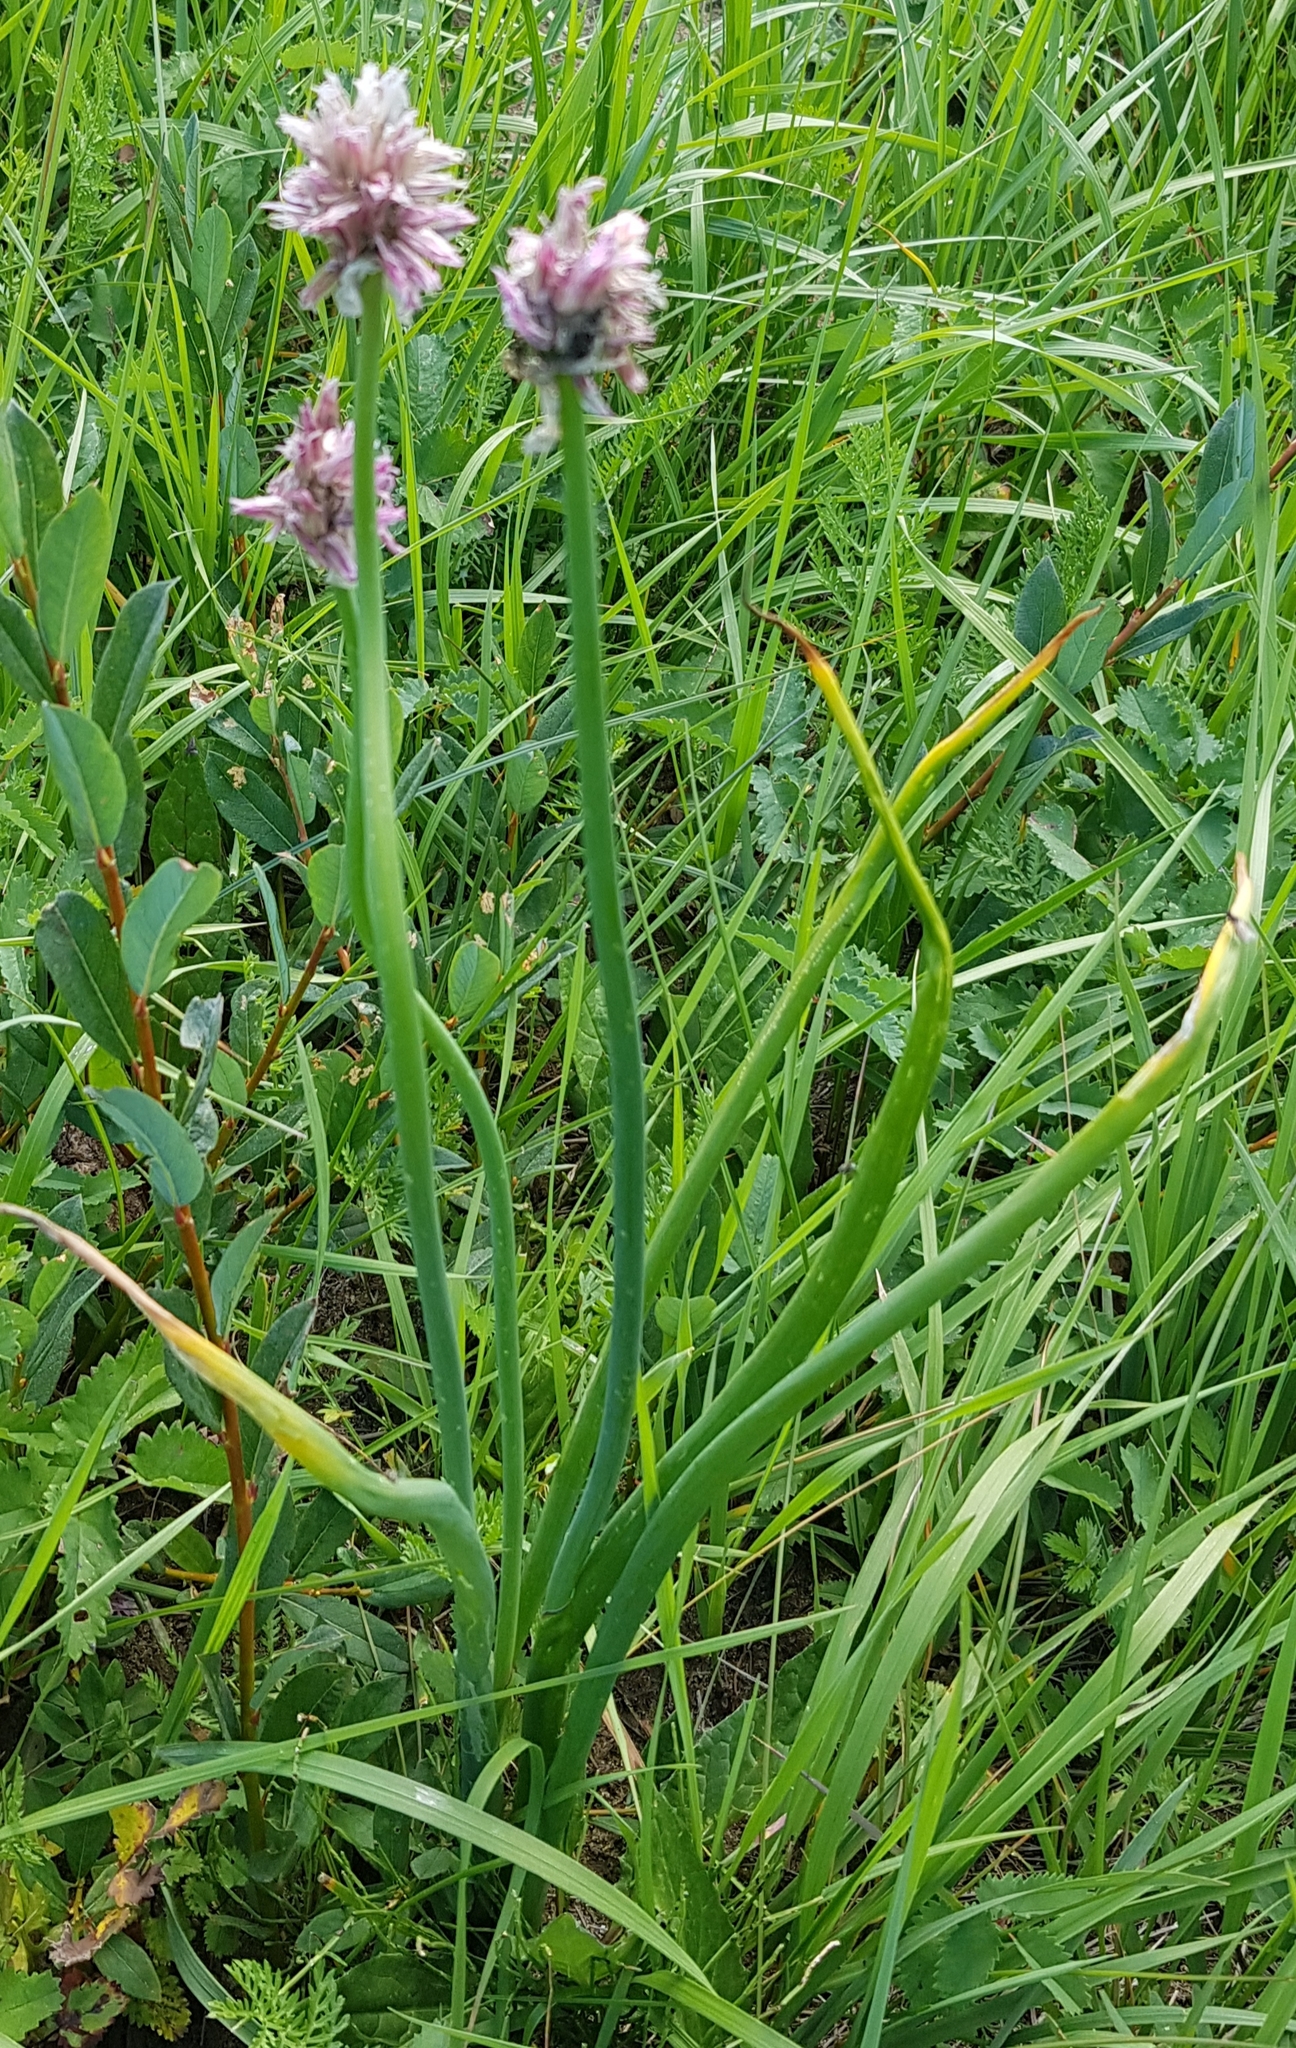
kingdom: Plantae
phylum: Tracheophyta
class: Liliopsida
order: Asparagales
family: Amaryllidaceae
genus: Allium
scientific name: Allium schoenoprasum
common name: Chives
